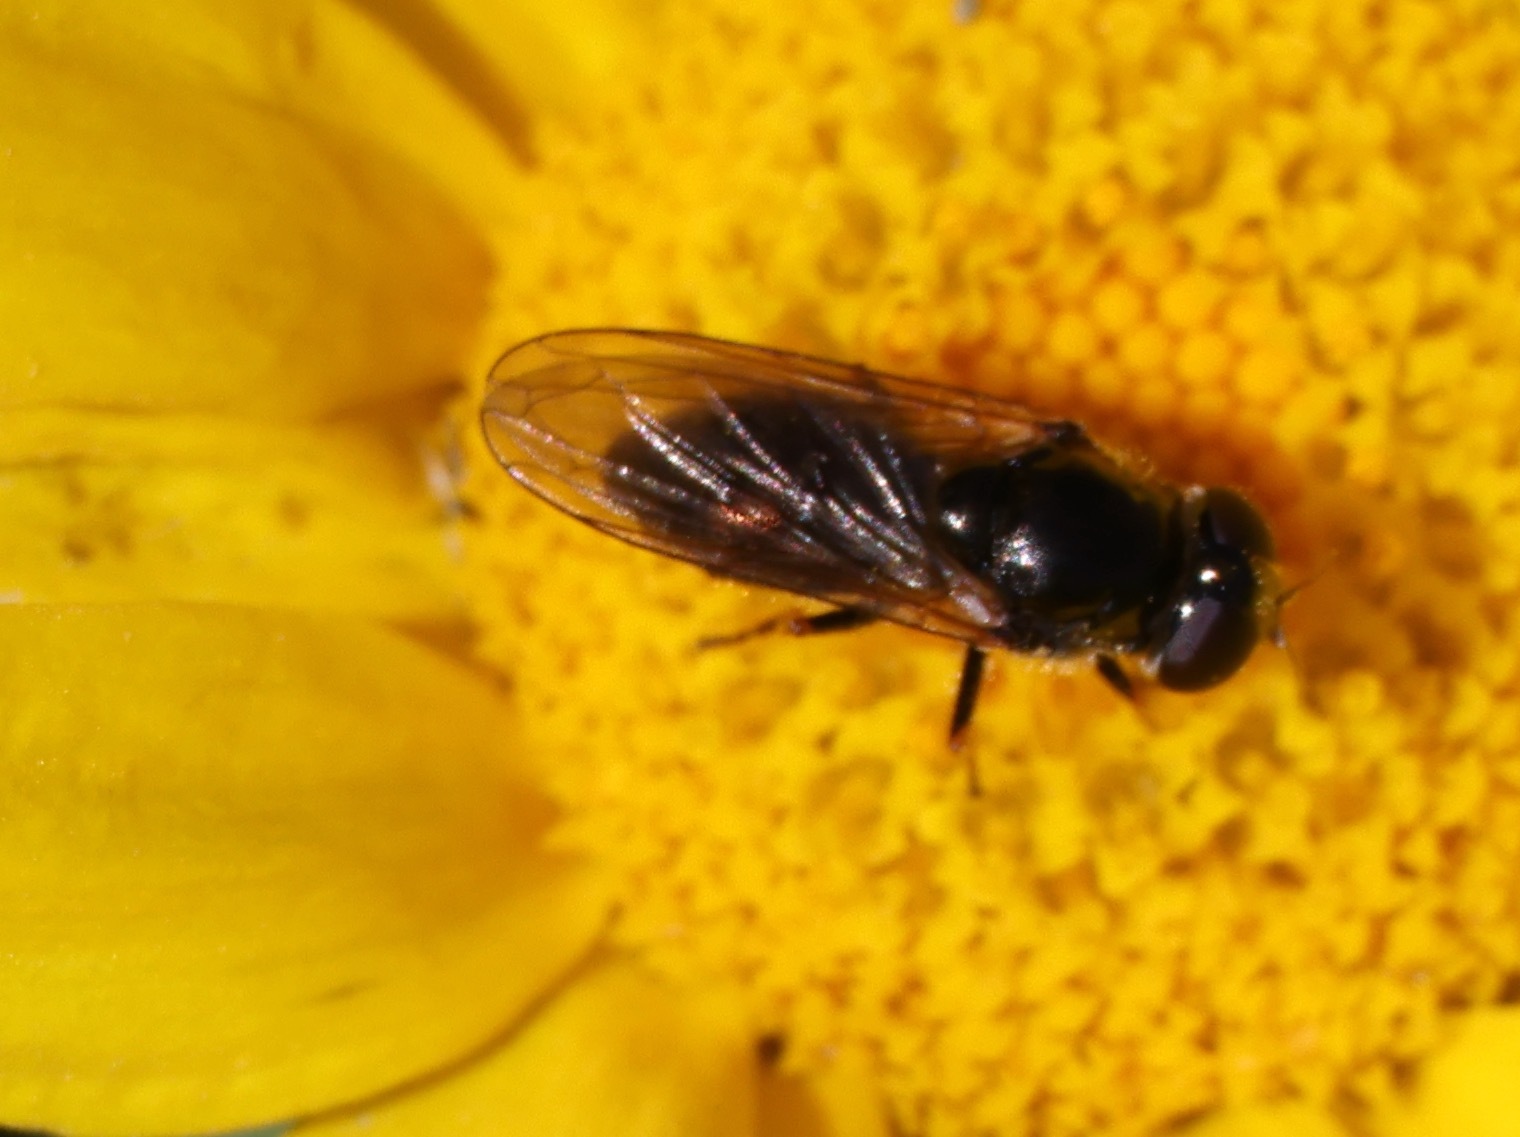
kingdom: Animalia
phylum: Arthropoda
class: Insecta
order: Diptera
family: Syrphidae
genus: Cheilosia
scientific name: Cheilosia
